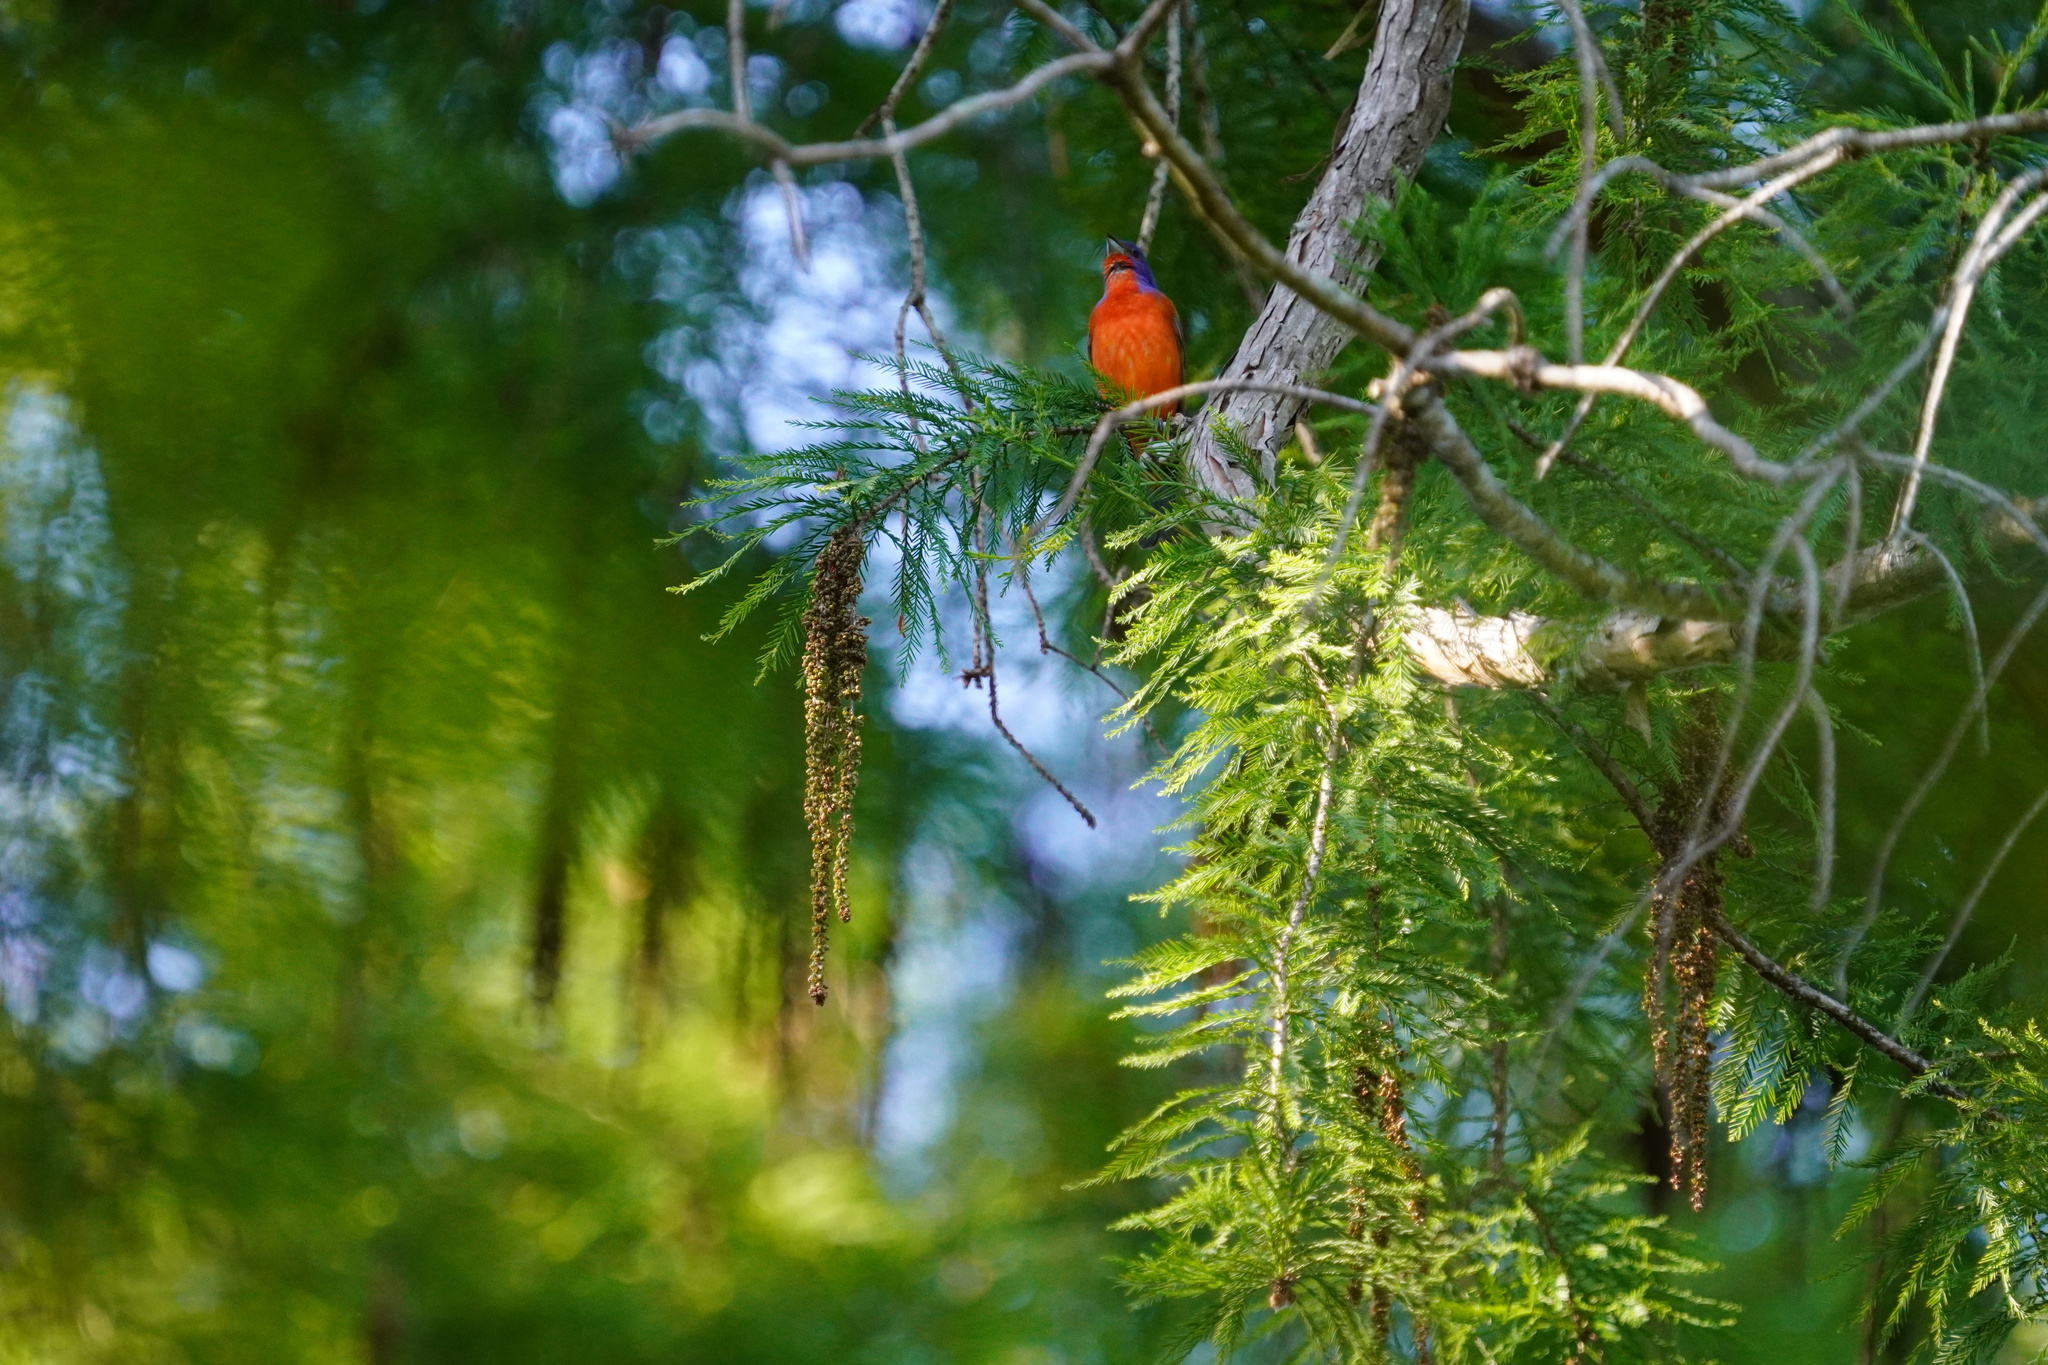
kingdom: Animalia
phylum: Chordata
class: Aves
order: Passeriformes
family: Cardinalidae
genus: Passerina
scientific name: Passerina ciris
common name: Painted bunting
